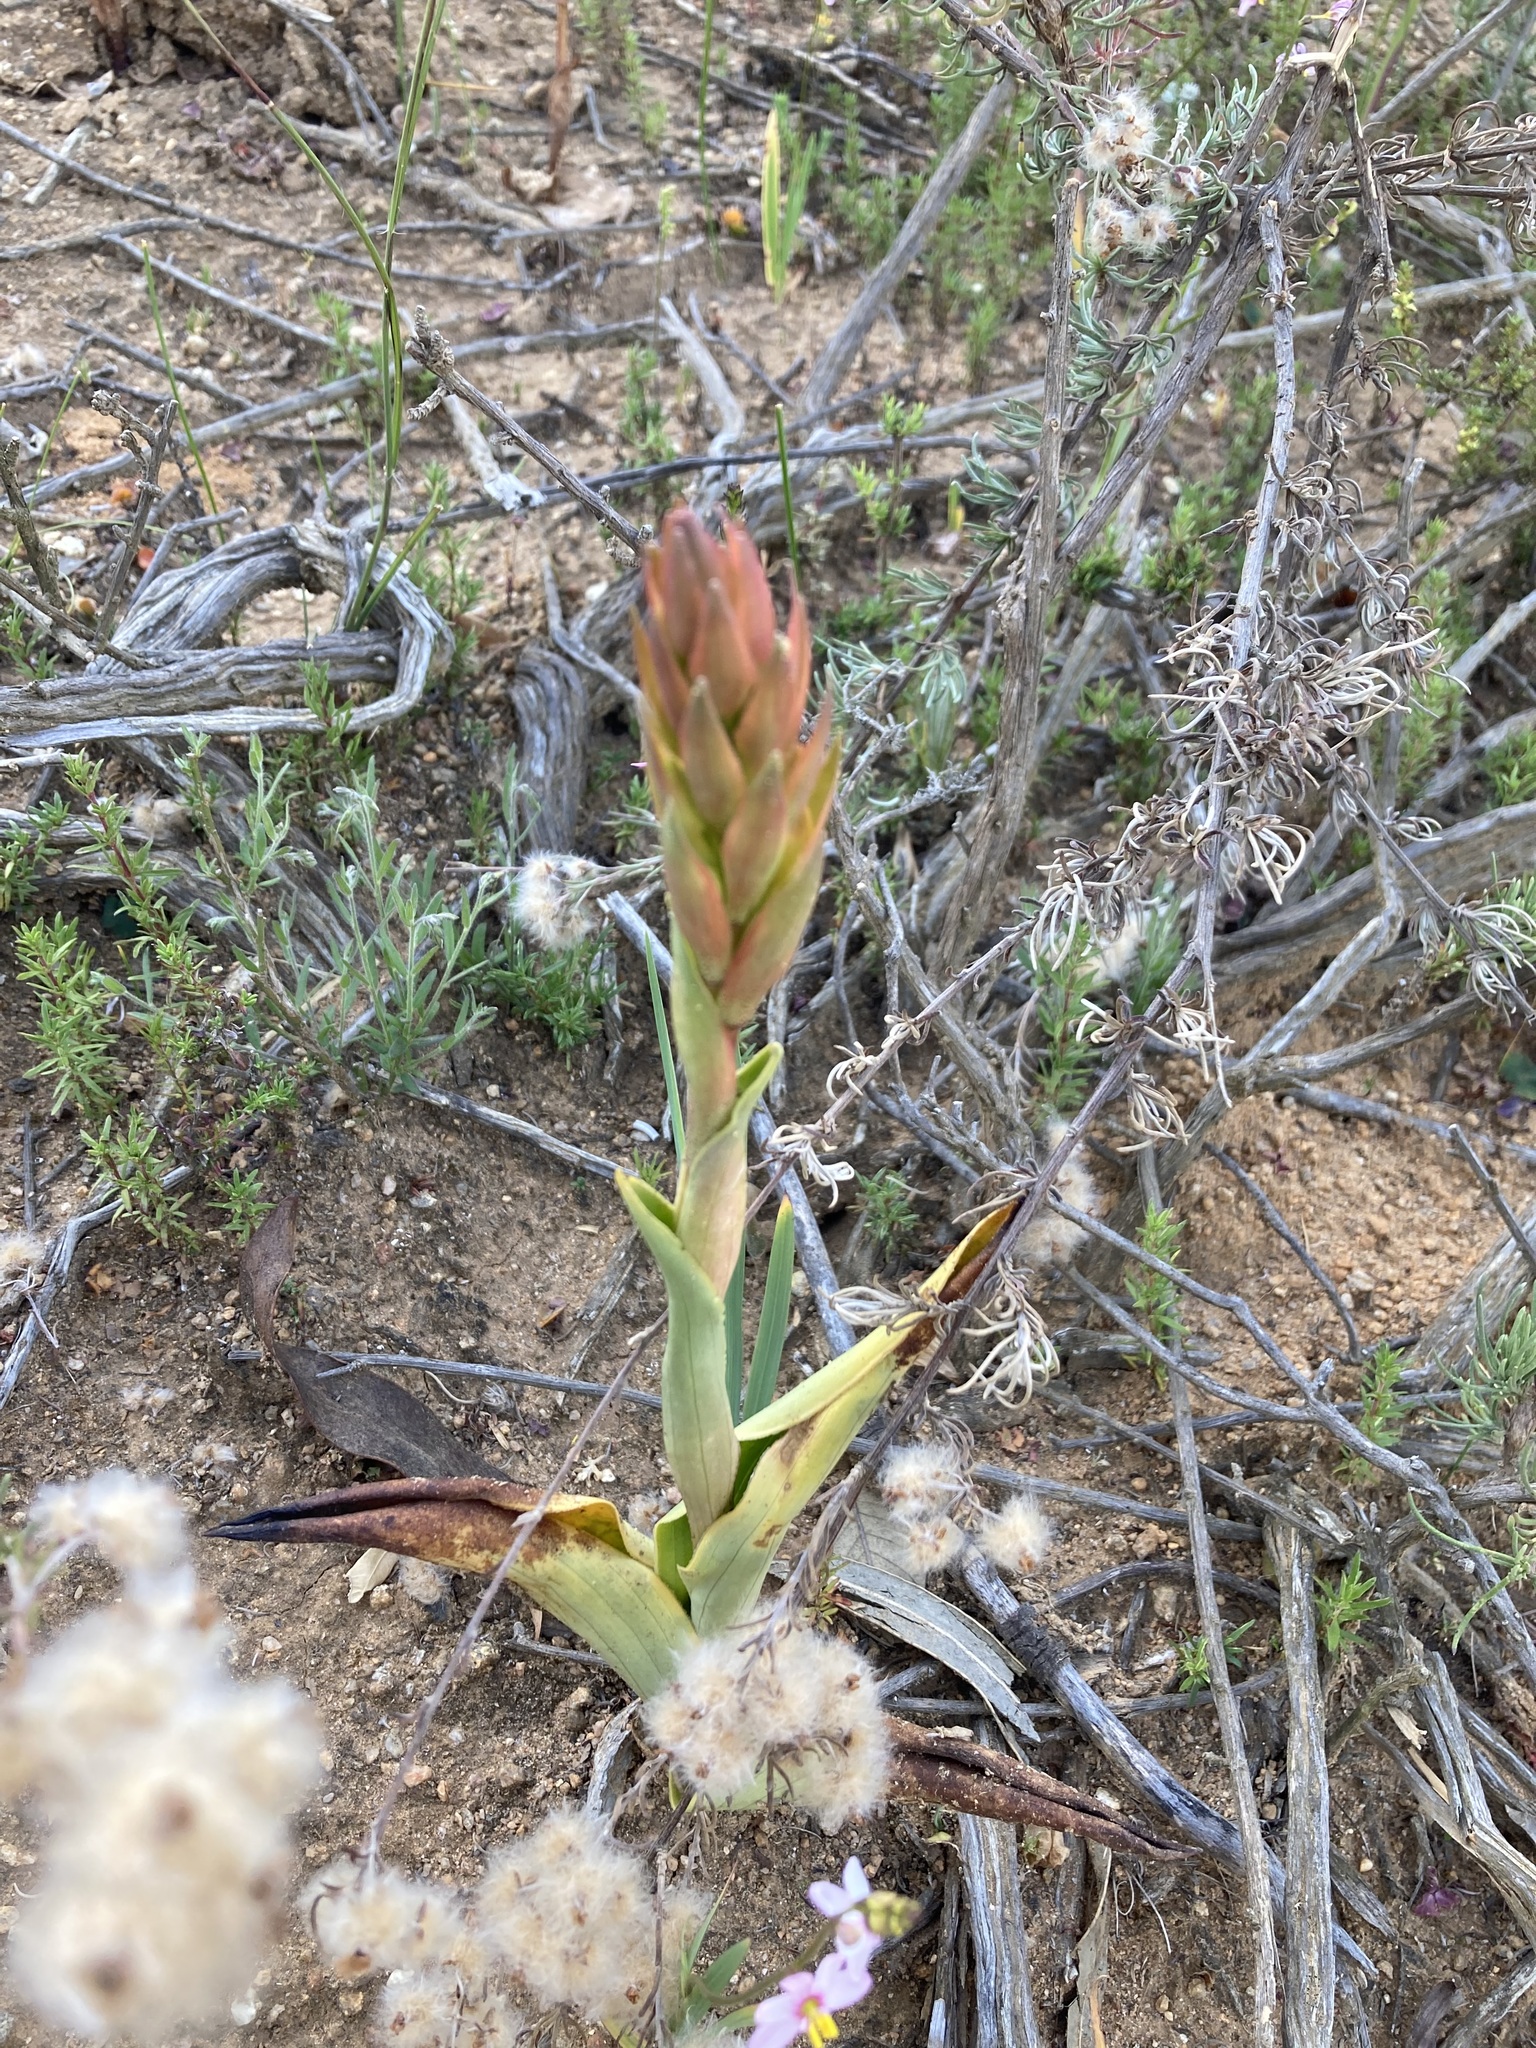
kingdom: Plantae
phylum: Tracheophyta
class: Liliopsida
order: Asparagales
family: Orchidaceae
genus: Satyrium
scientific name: Satyrium coriifolium
